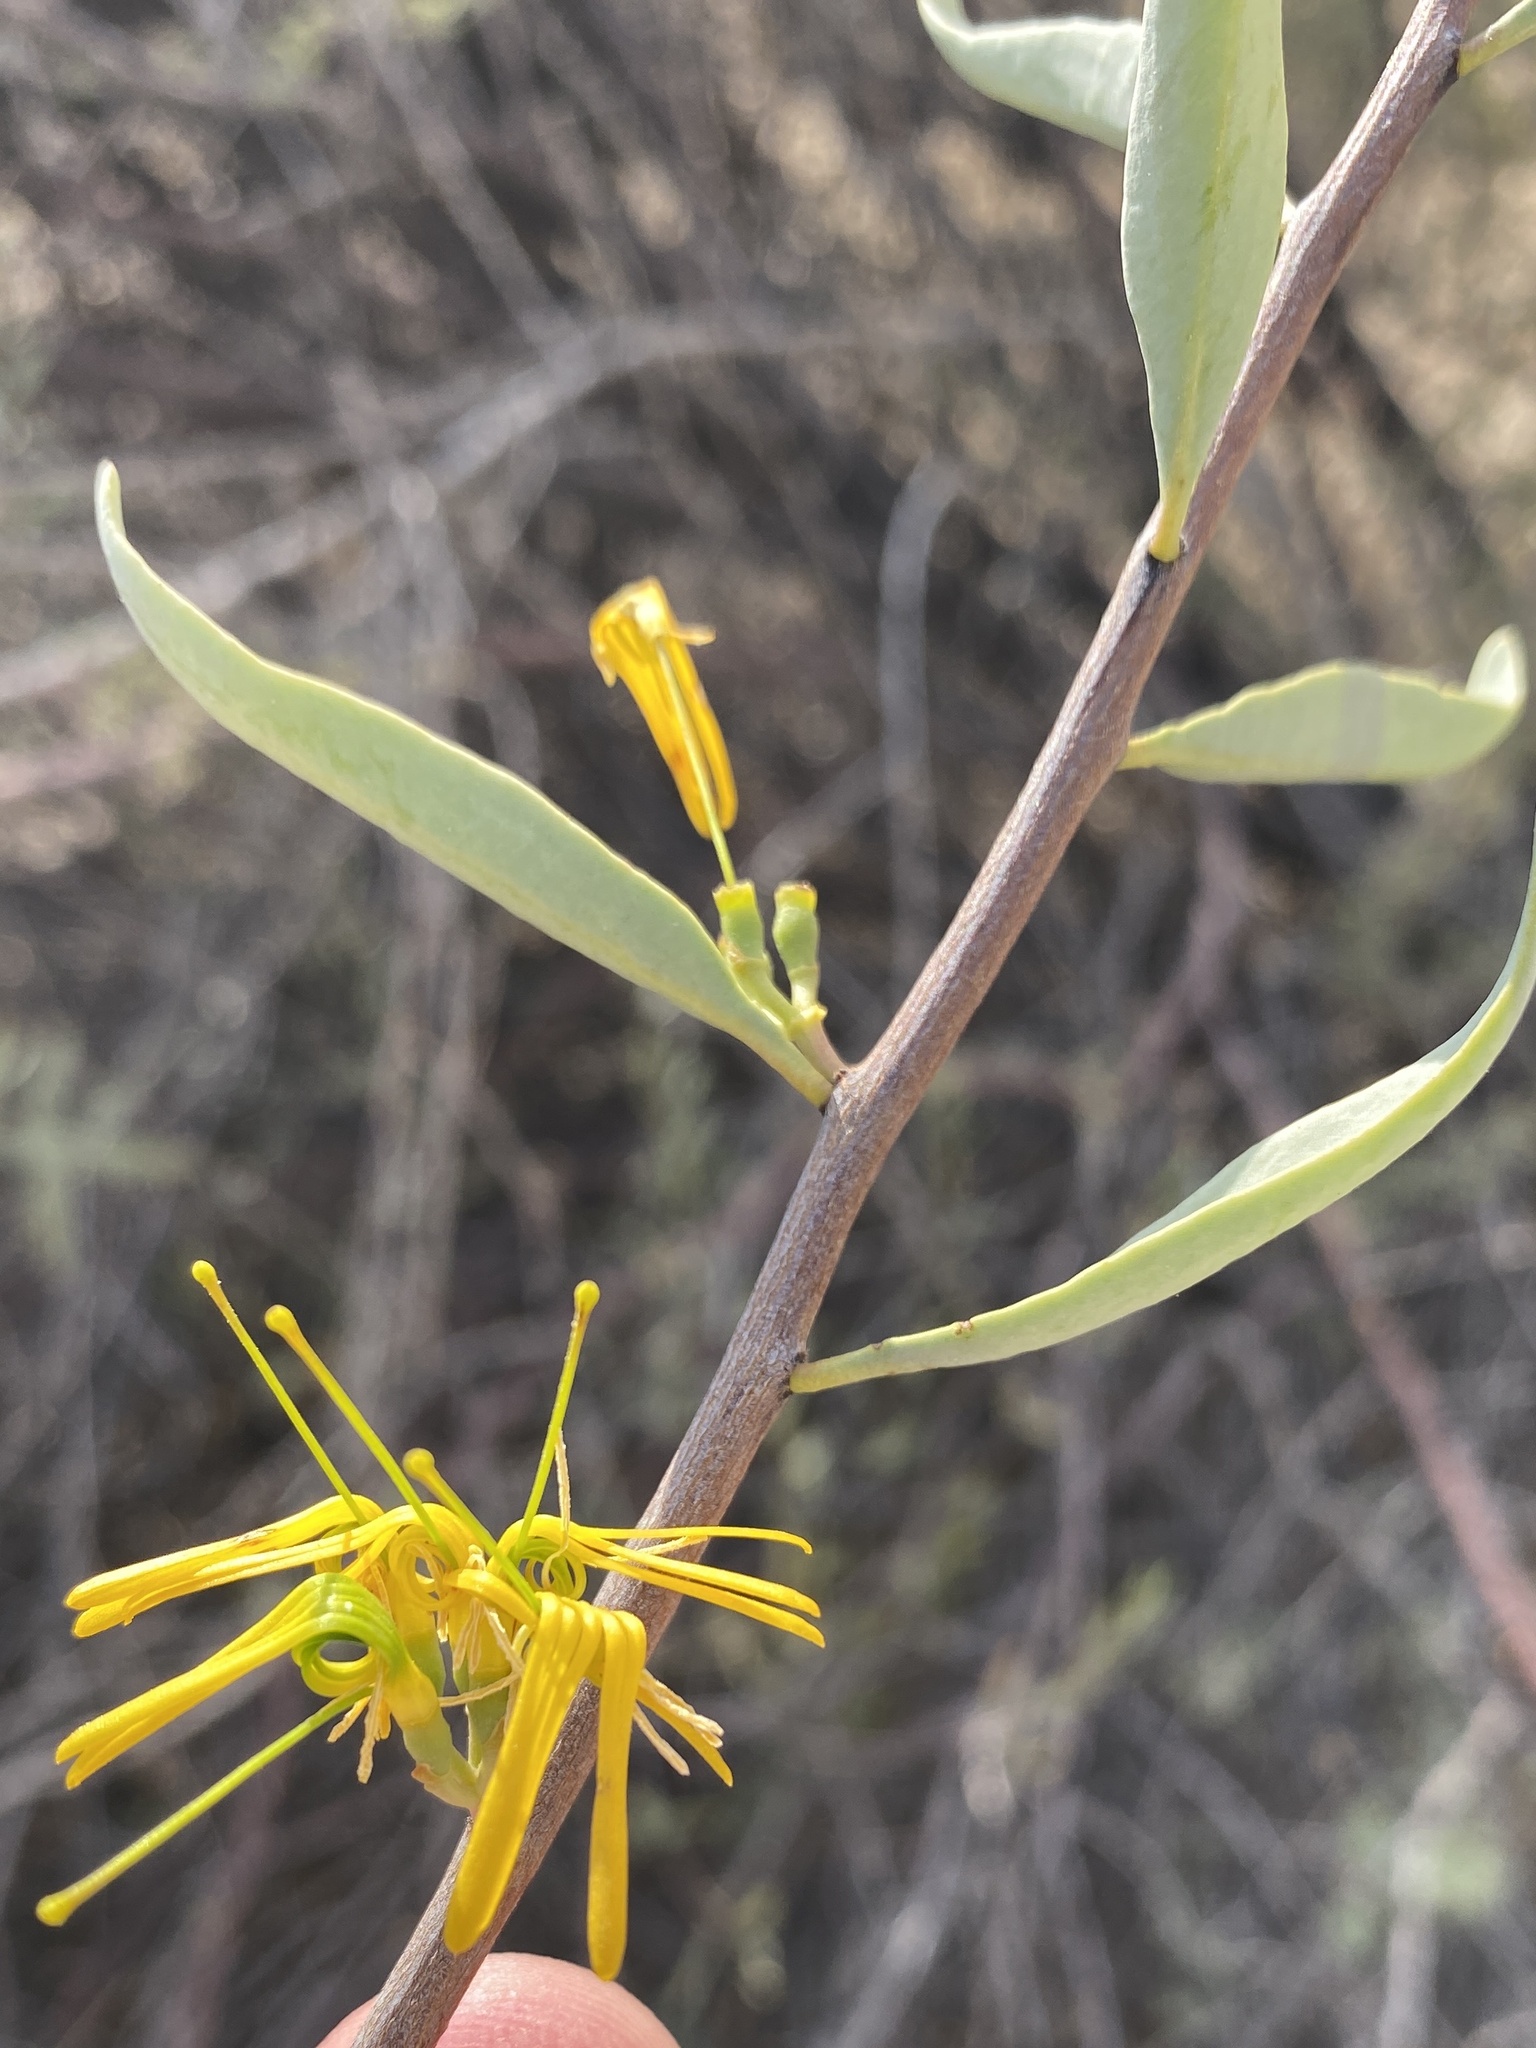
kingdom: Plantae
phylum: Tracheophyta
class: Magnoliopsida
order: Santalales
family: Loranthaceae
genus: Loranthella
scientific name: Loranthella welwitschii
